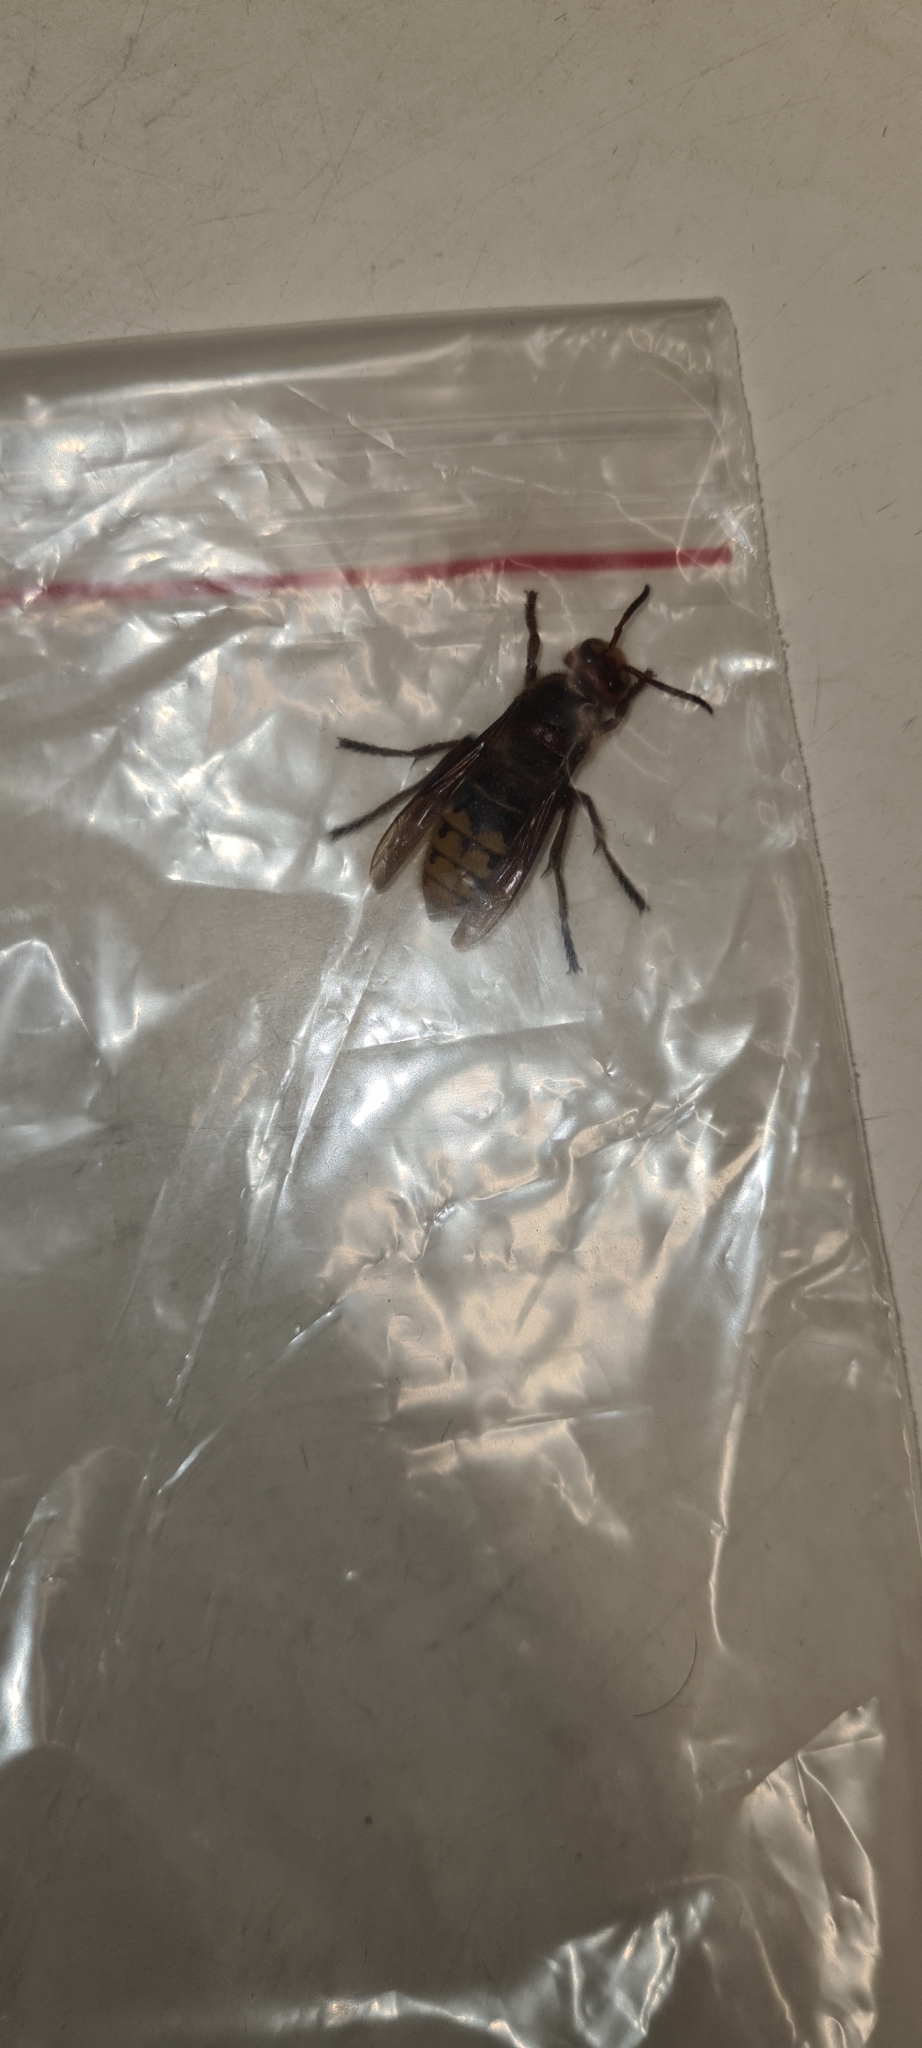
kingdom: Animalia
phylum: Arthropoda
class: Insecta
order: Hymenoptera
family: Vespidae
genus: Vespa
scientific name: Vespa crabro
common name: Hornet
